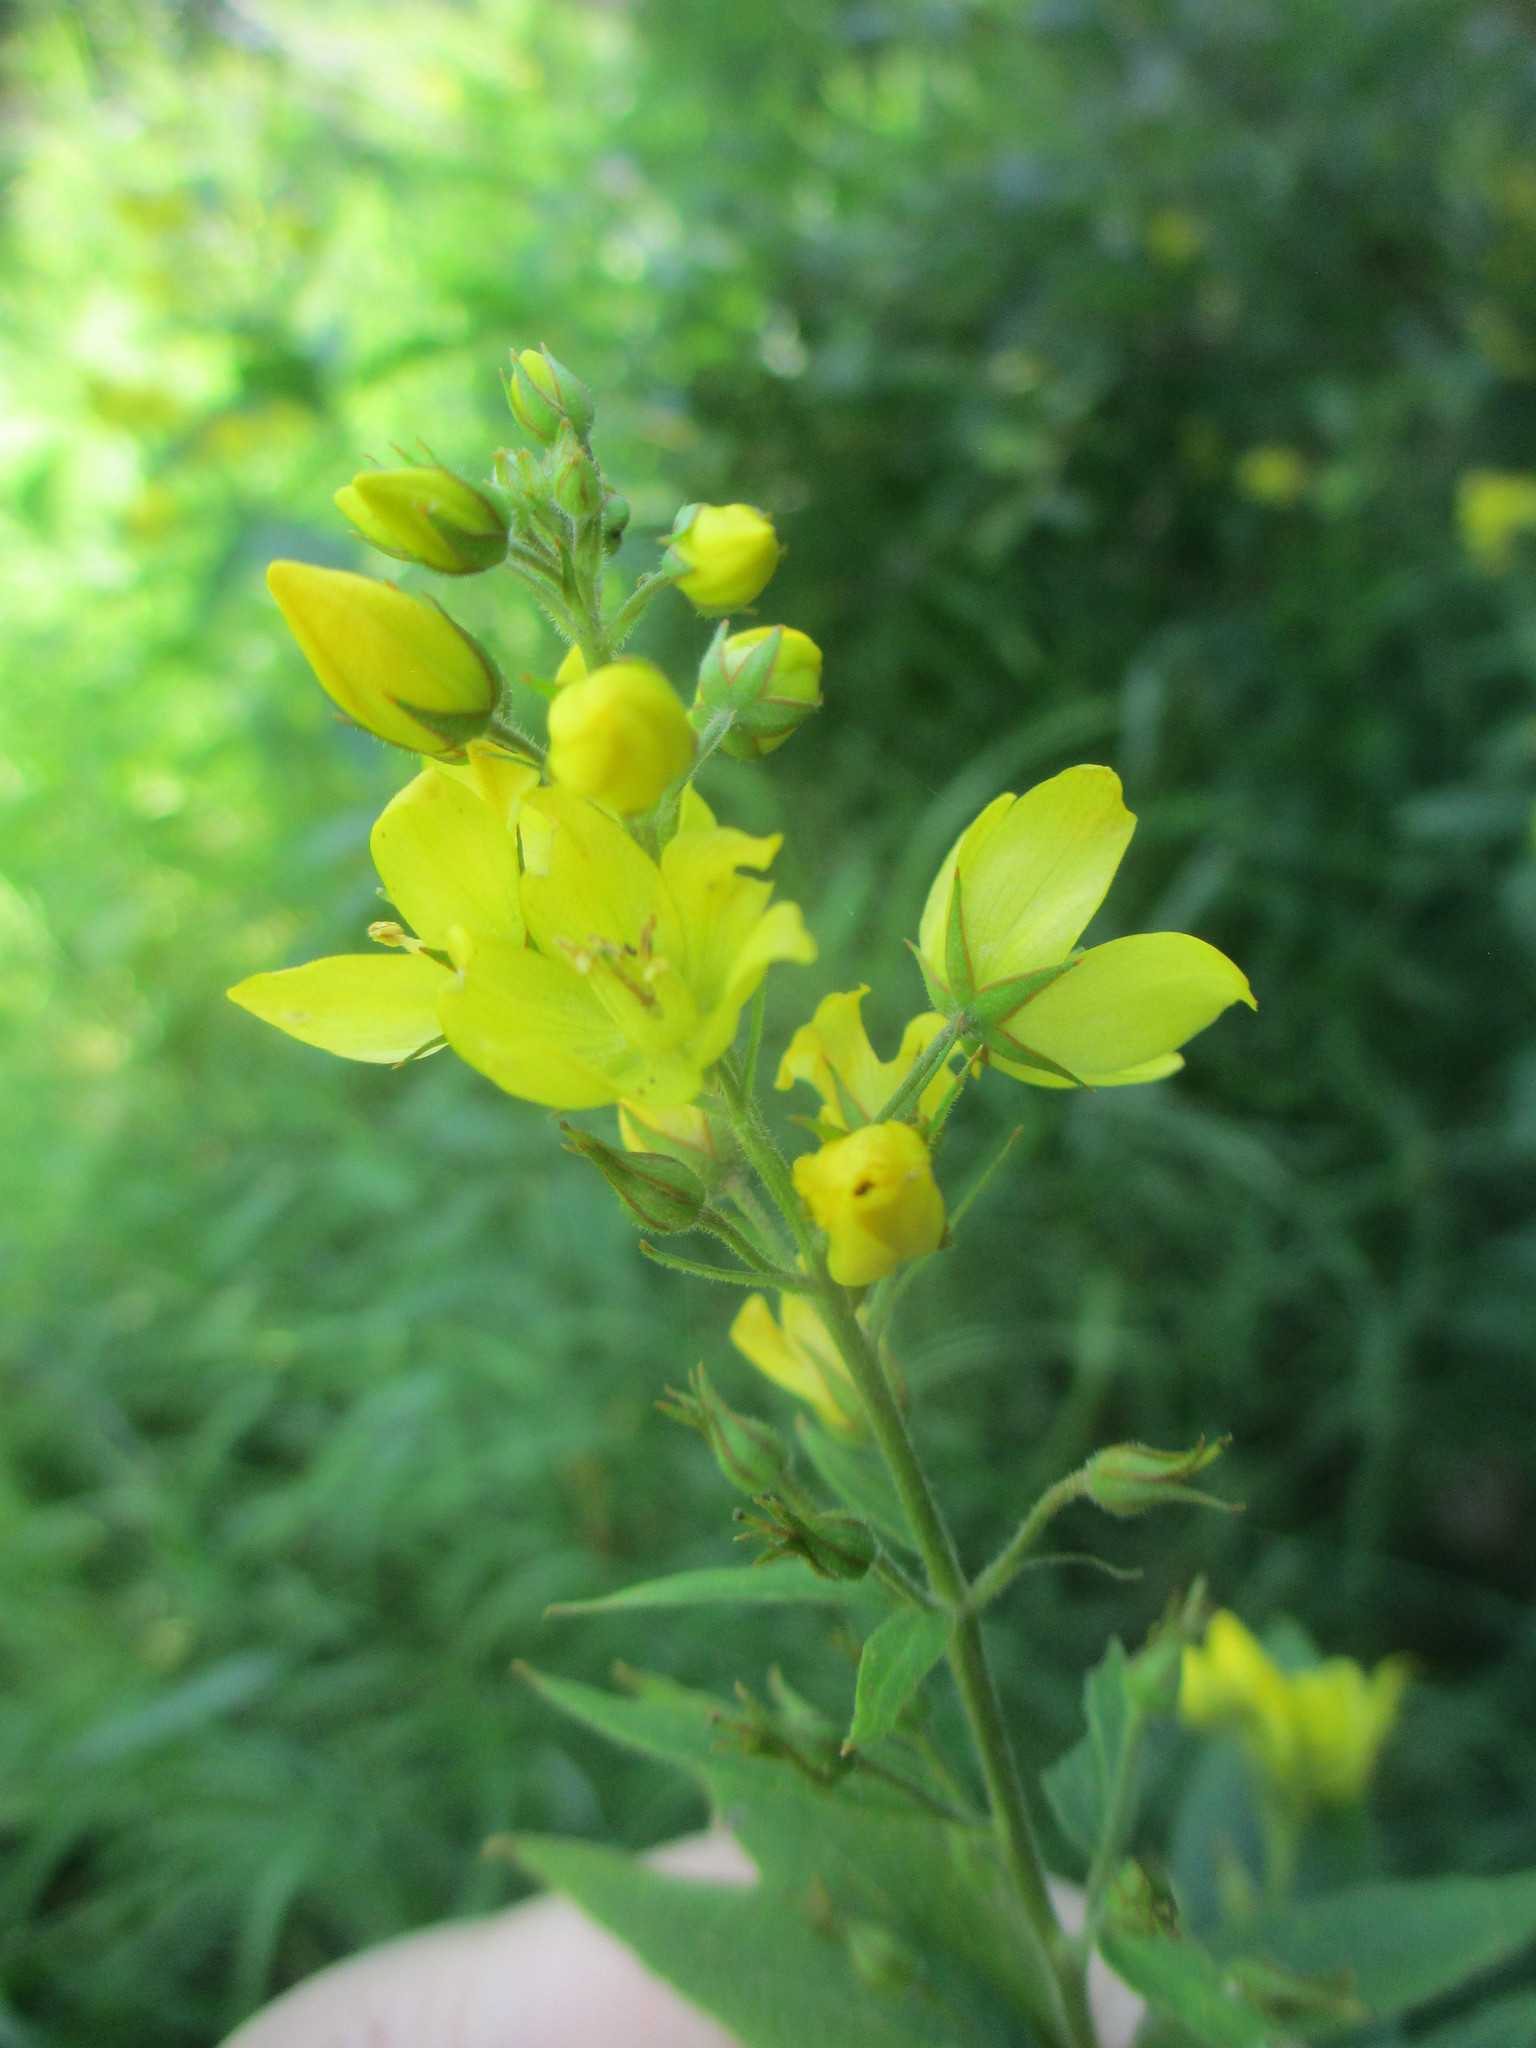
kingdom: Plantae
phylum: Tracheophyta
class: Magnoliopsida
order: Ericales
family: Primulaceae
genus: Lysimachia
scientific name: Lysimachia vulgaris
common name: Yellow loosestrife
